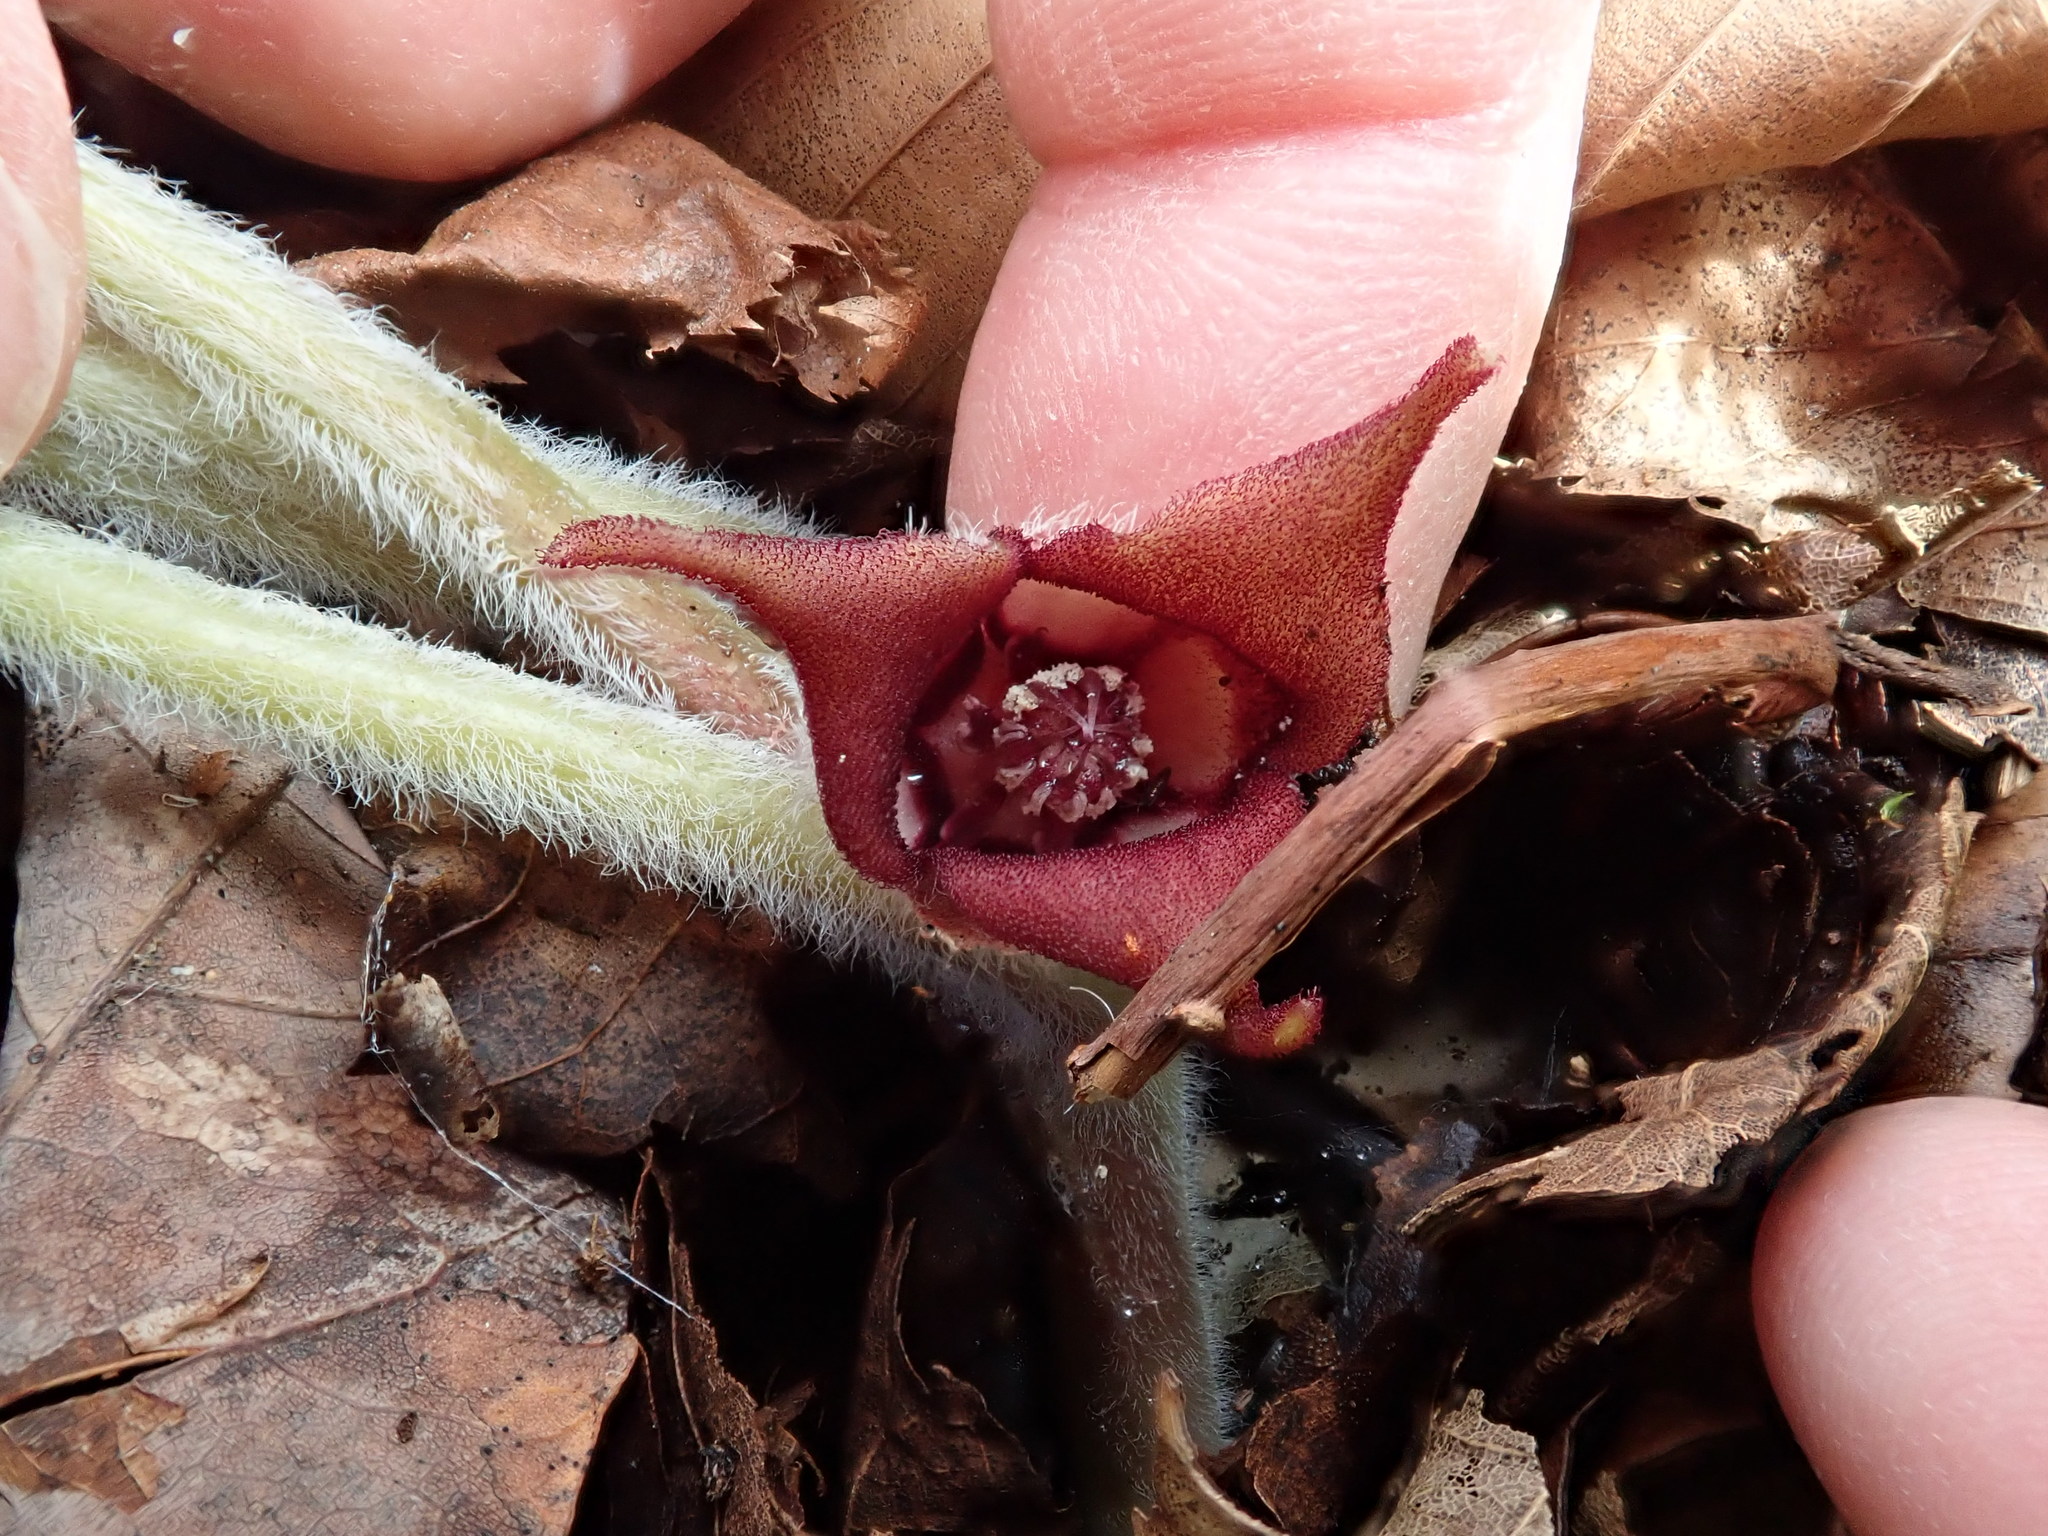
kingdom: Plantae
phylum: Tracheophyta
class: Magnoliopsida
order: Piperales
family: Aristolochiaceae
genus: Asarum
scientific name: Asarum canadense
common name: Wild ginger
